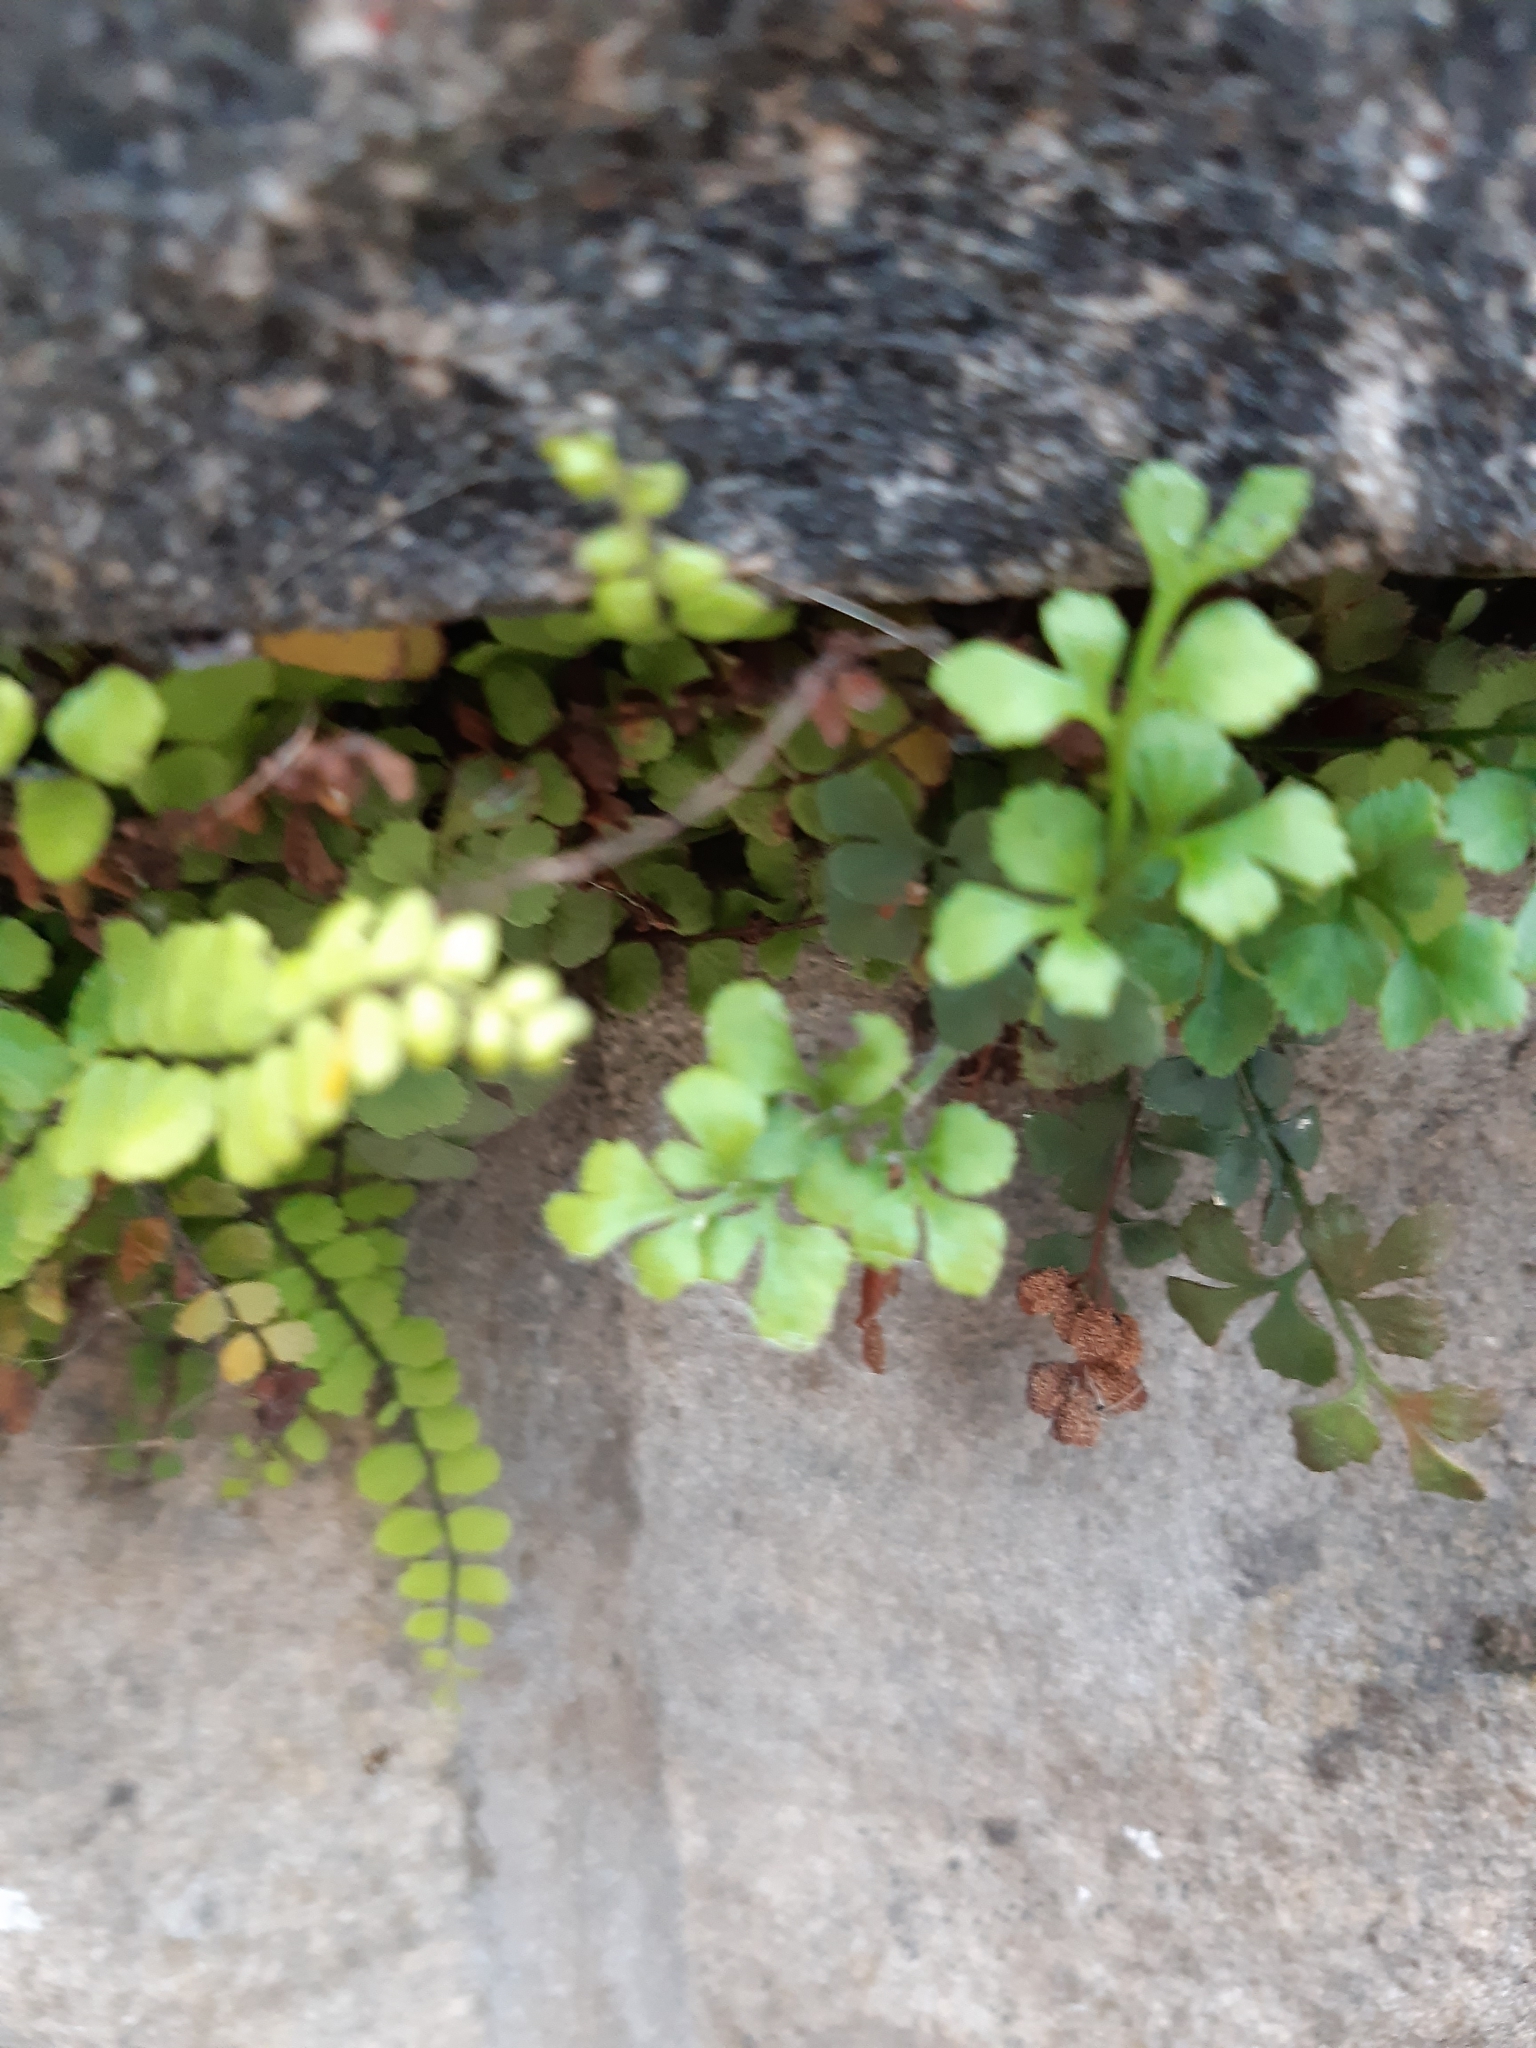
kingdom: Plantae
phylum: Tracheophyta
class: Polypodiopsida
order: Polypodiales
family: Aspleniaceae
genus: Asplenium
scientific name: Asplenium ruta-muraria
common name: Wall-rue
